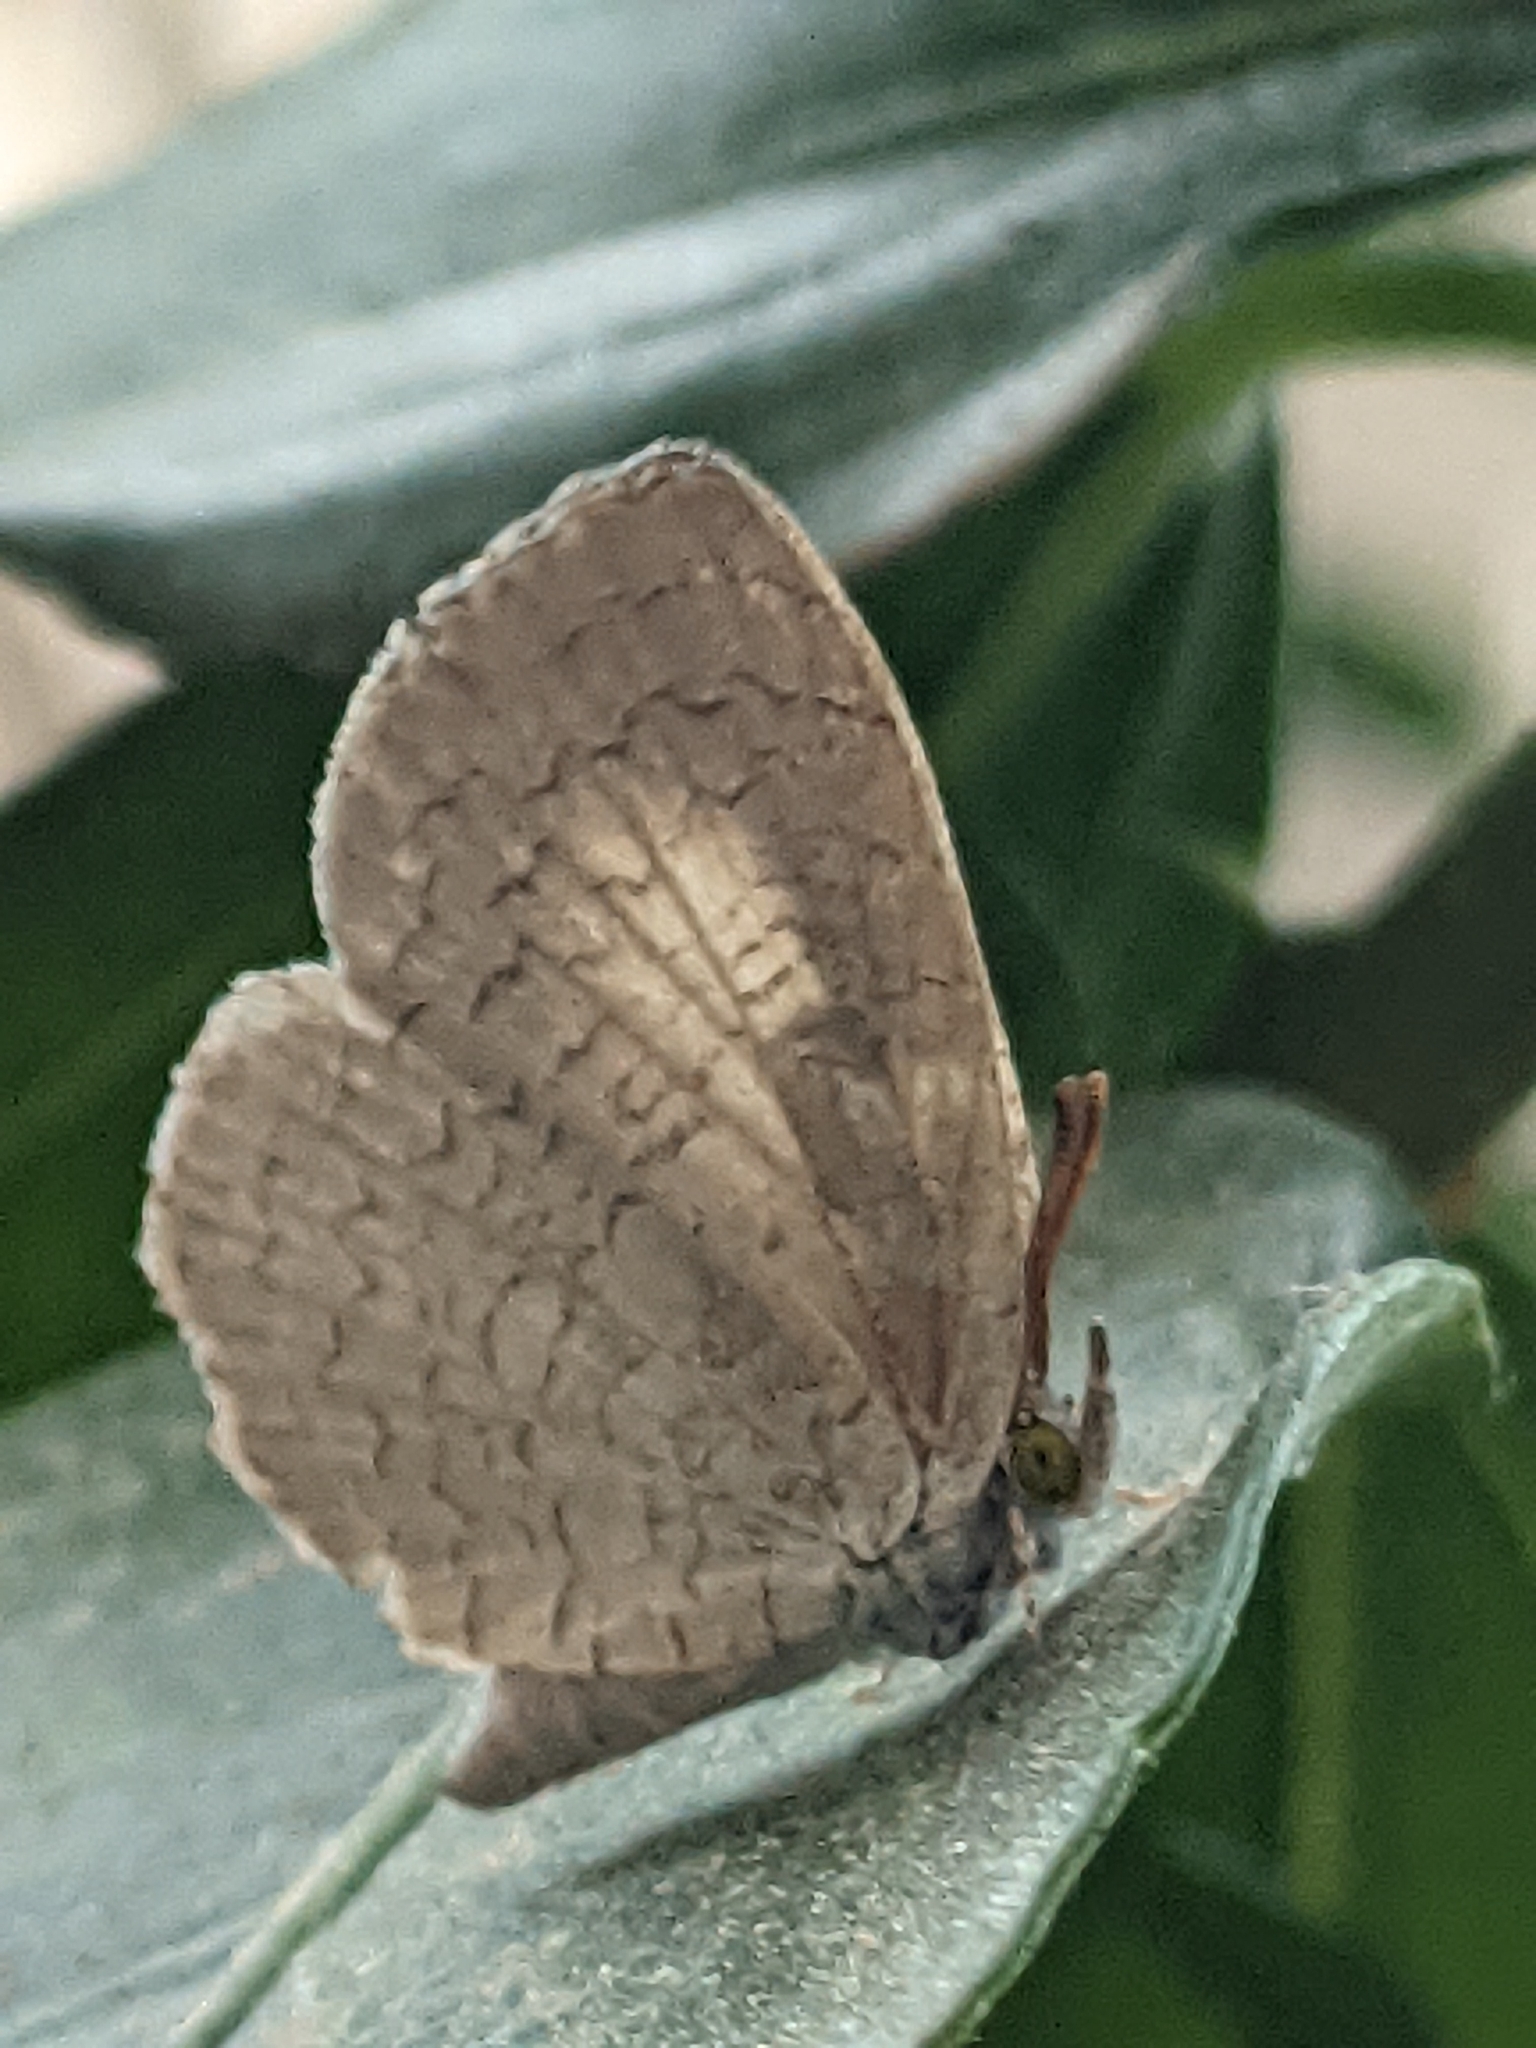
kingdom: Animalia
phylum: Arthropoda
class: Insecta
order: Lepidoptera
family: Lycaenidae
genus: Spalgis
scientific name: Spalgis epius
